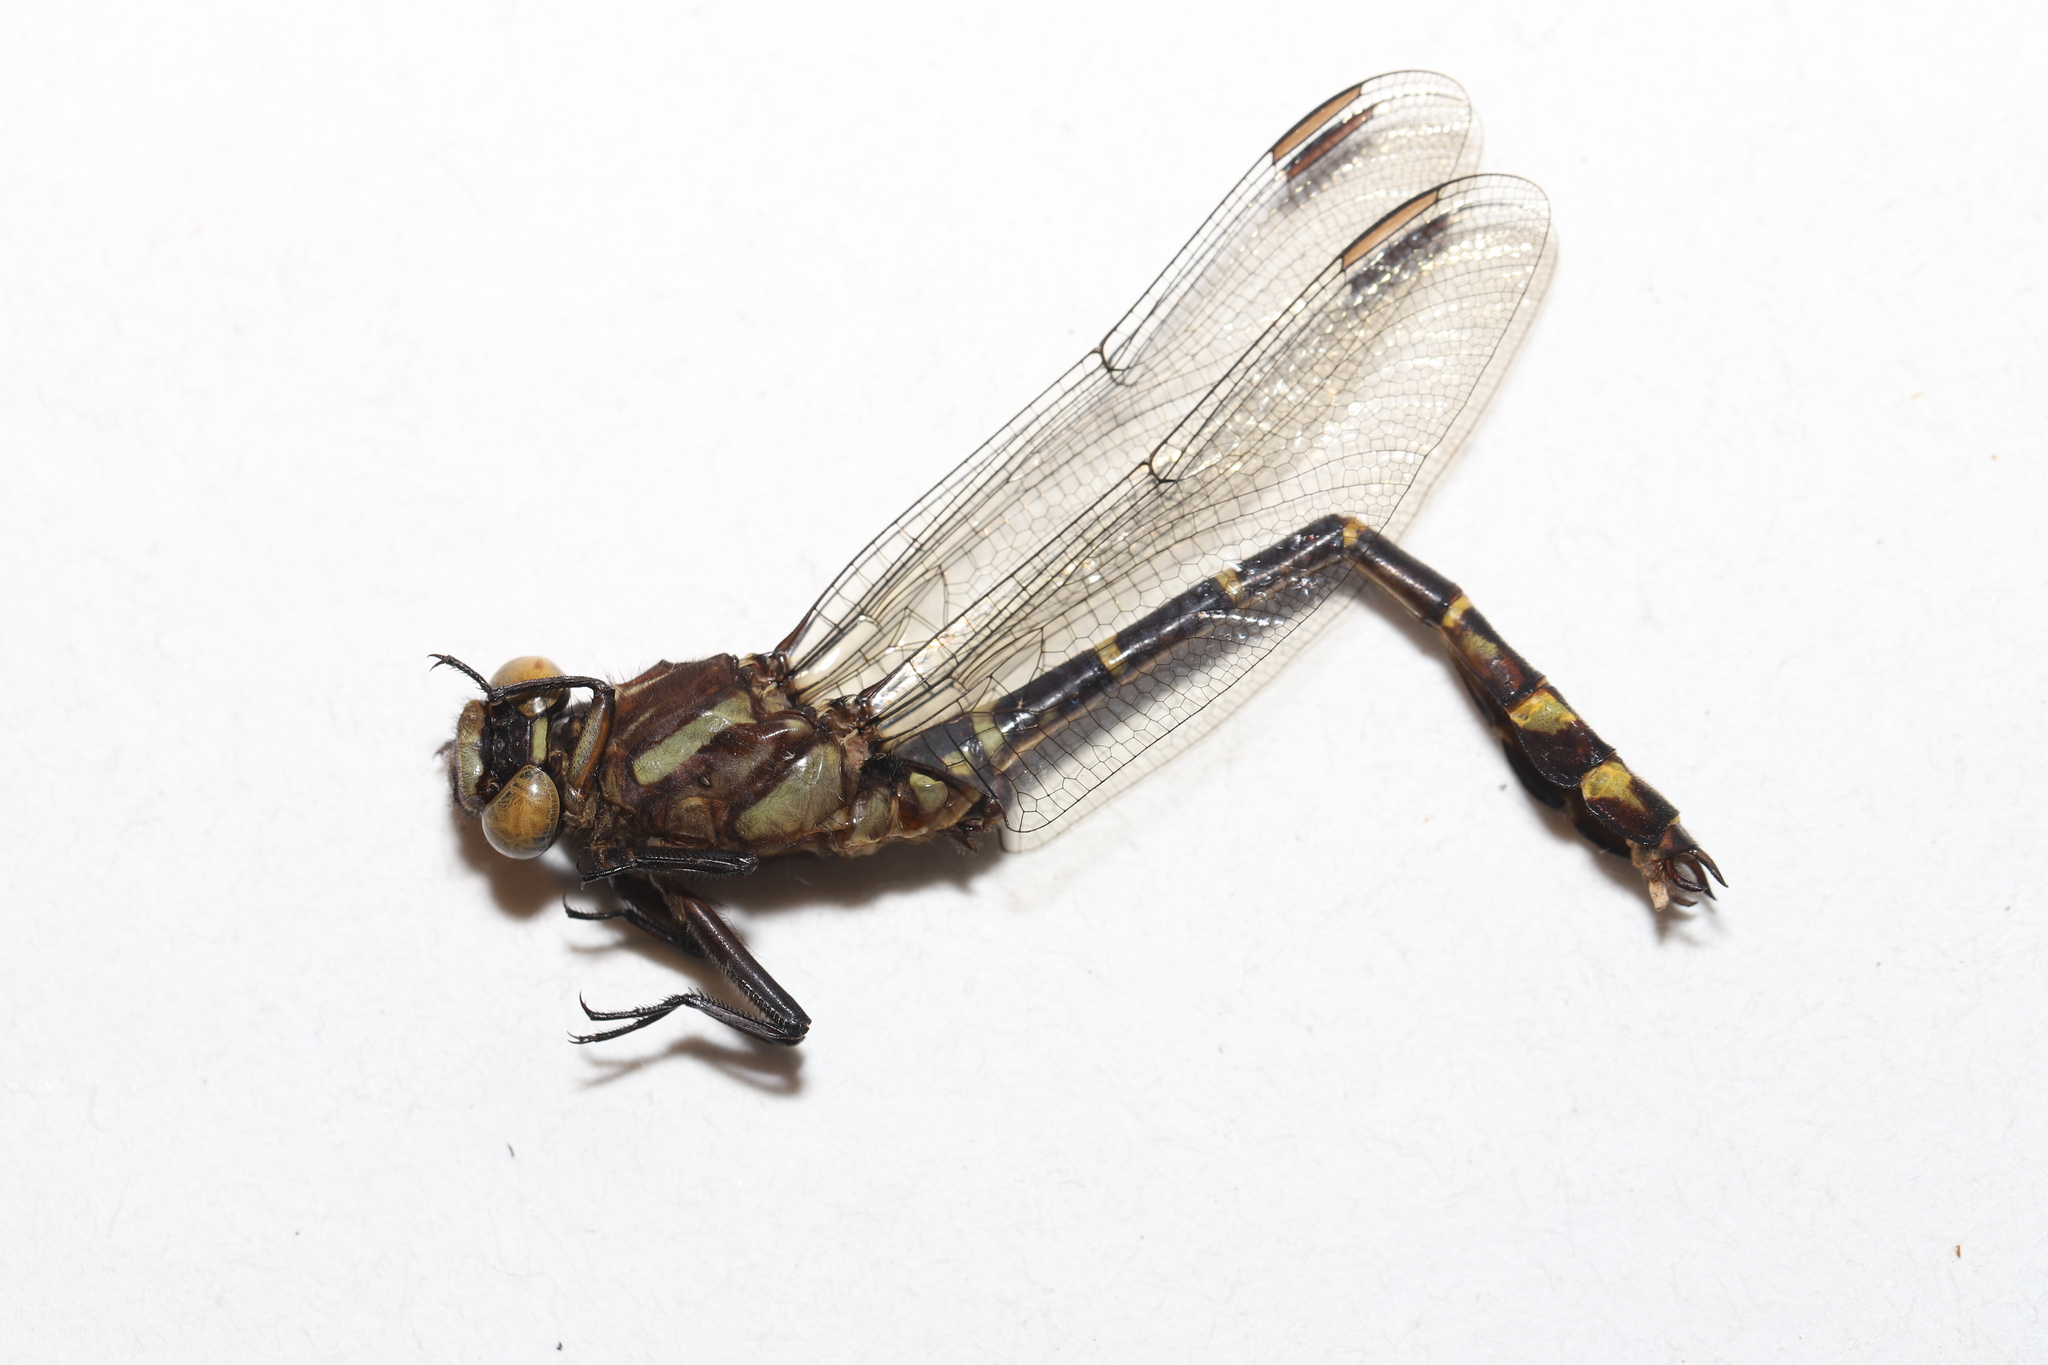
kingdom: Animalia
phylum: Arthropoda
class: Insecta
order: Odonata
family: Gomphidae
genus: Stylurus
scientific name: Stylurus scudderi
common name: Zebra clubtail
